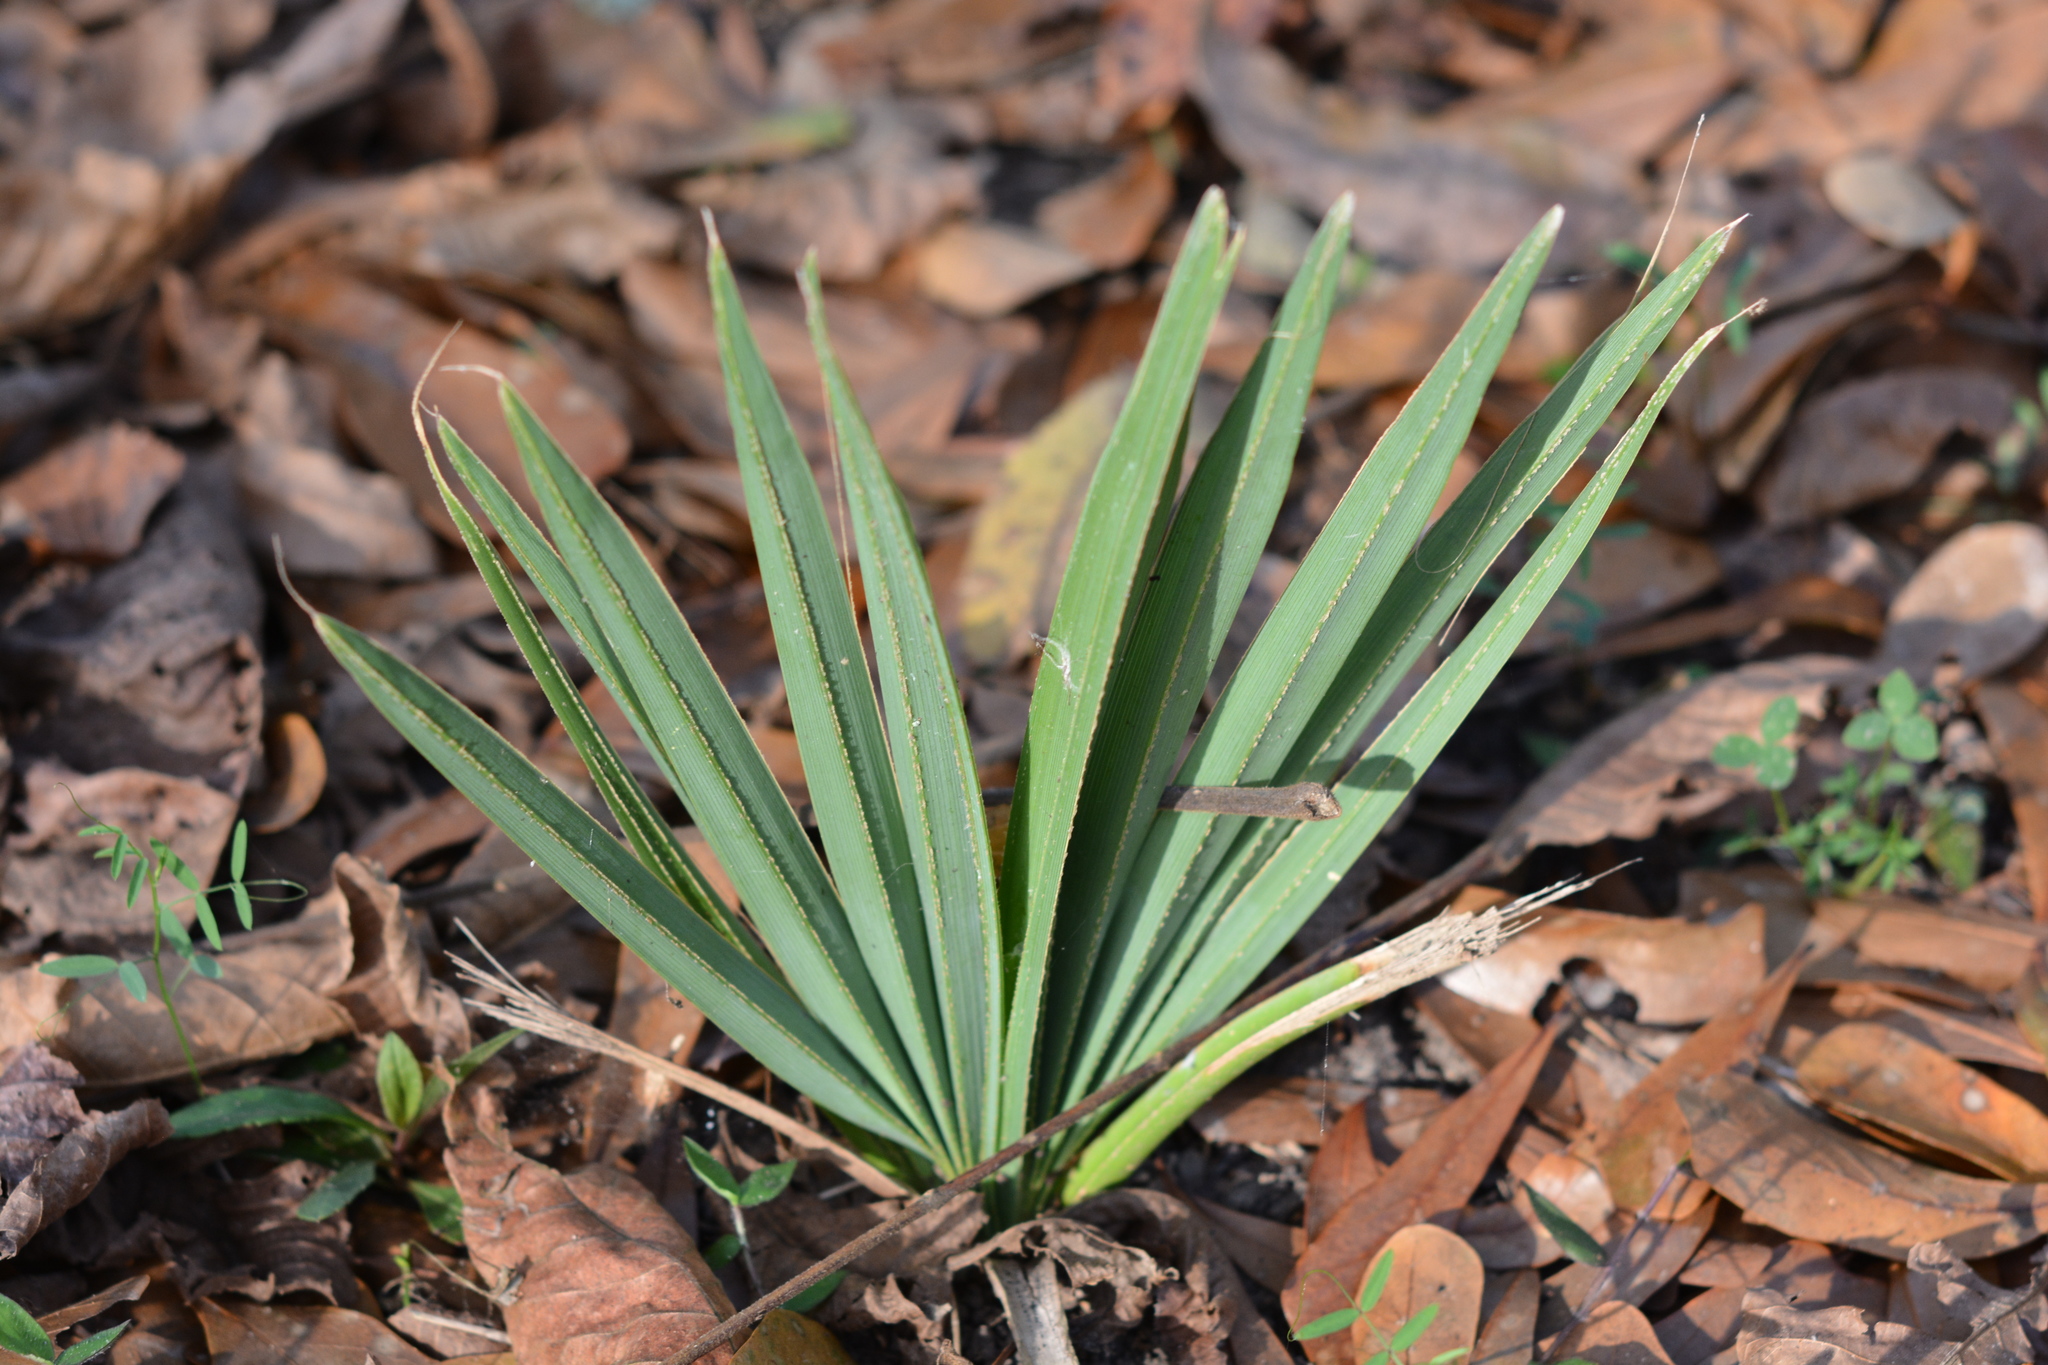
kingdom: Plantae
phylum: Tracheophyta
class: Liliopsida
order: Arecales
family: Arecaceae
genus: Sabal
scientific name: Sabal minor
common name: Dwarf palmetto
